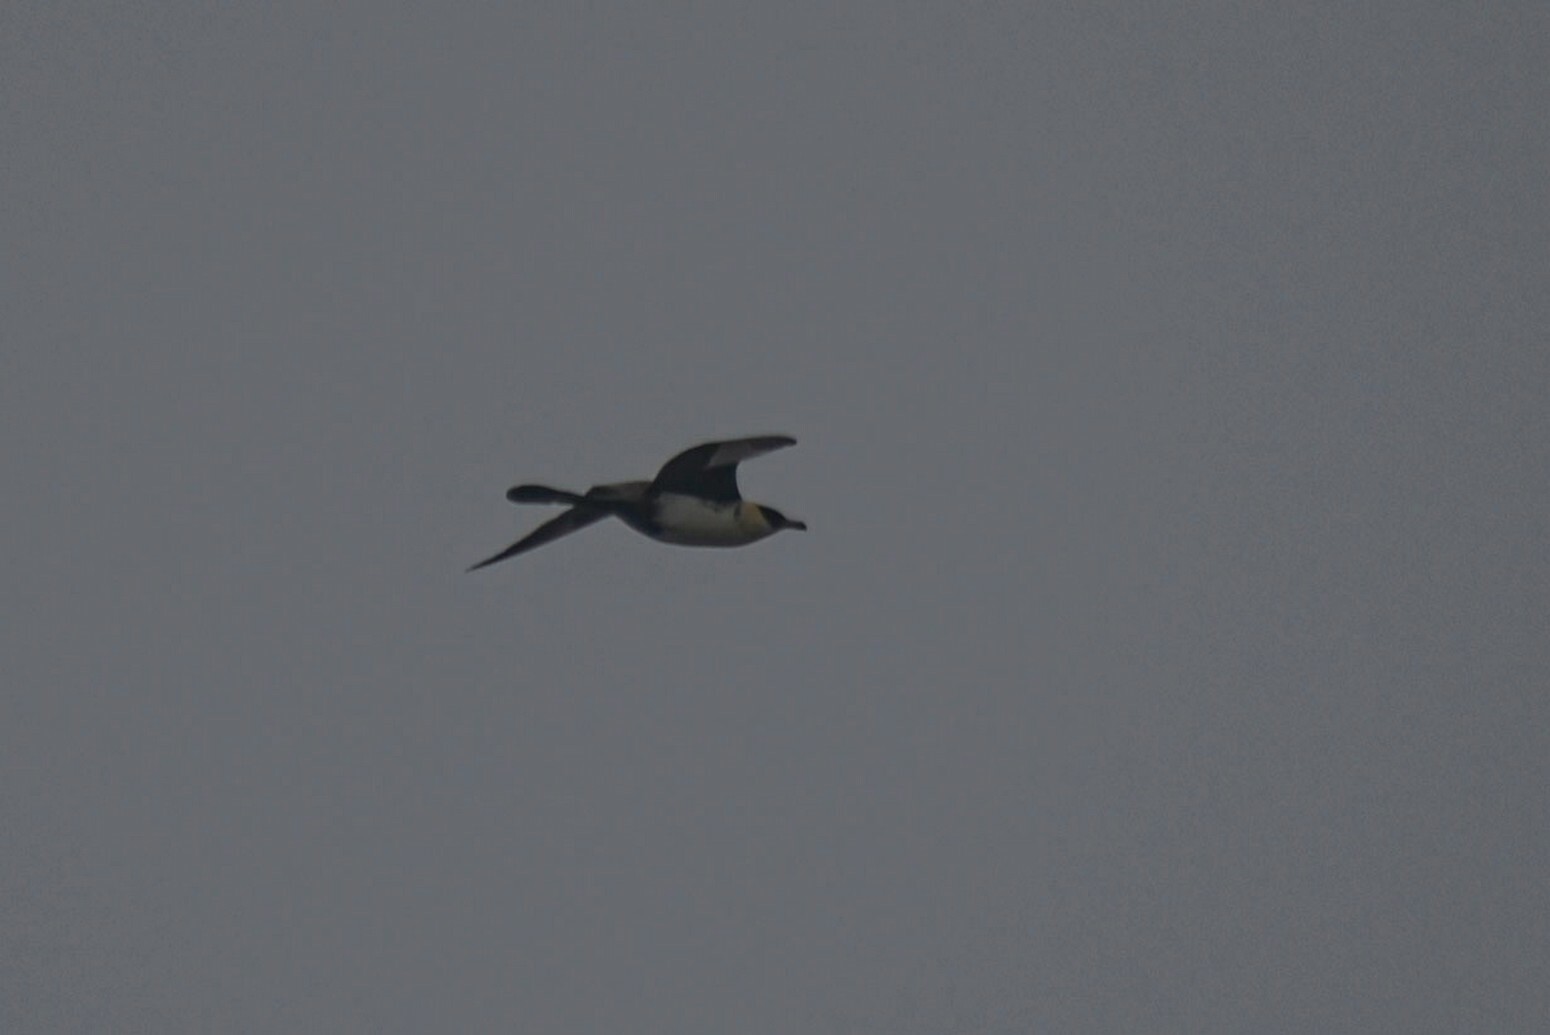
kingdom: Animalia
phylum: Chordata
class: Aves
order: Charadriiformes
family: Stercorariidae
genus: Stercorarius
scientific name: Stercorarius pomarinus
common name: Pomarine jaeger
